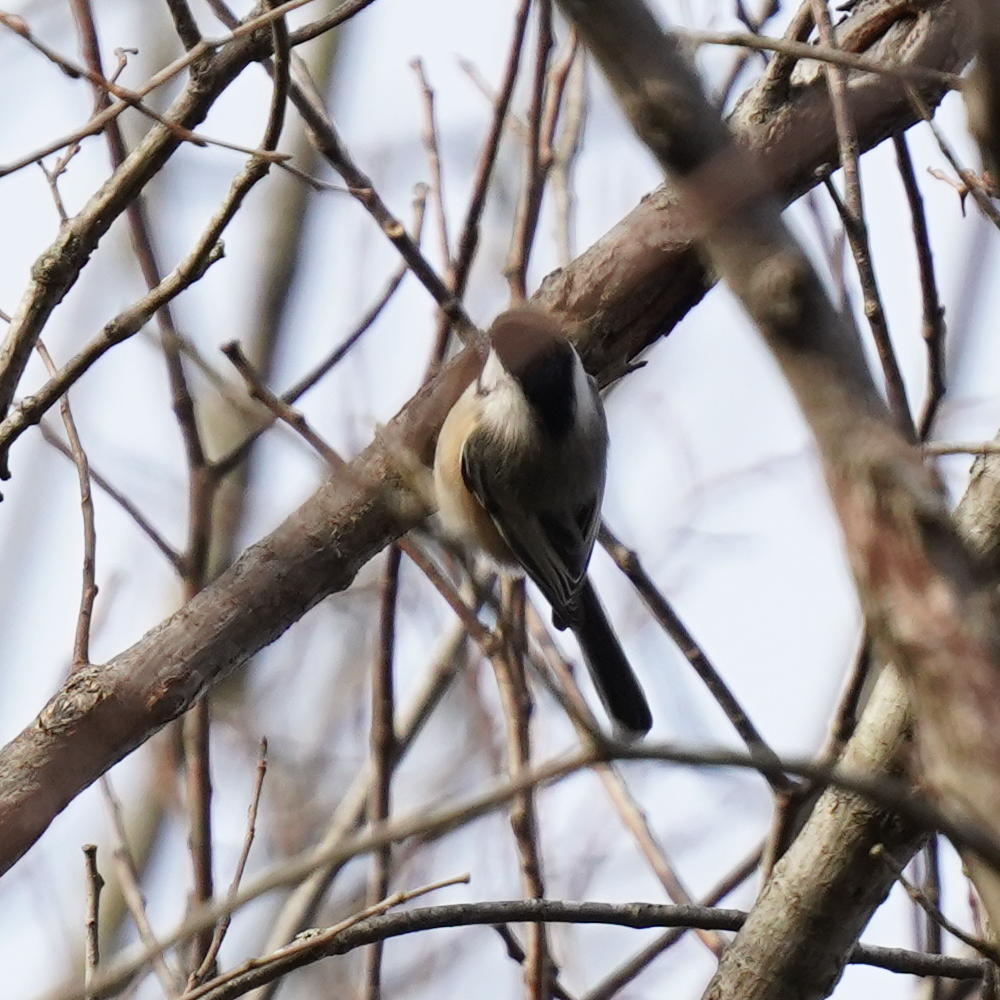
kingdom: Animalia
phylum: Chordata
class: Aves
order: Passeriformes
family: Paridae
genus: Poecile
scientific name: Poecile atricapillus
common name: Black-capped chickadee
